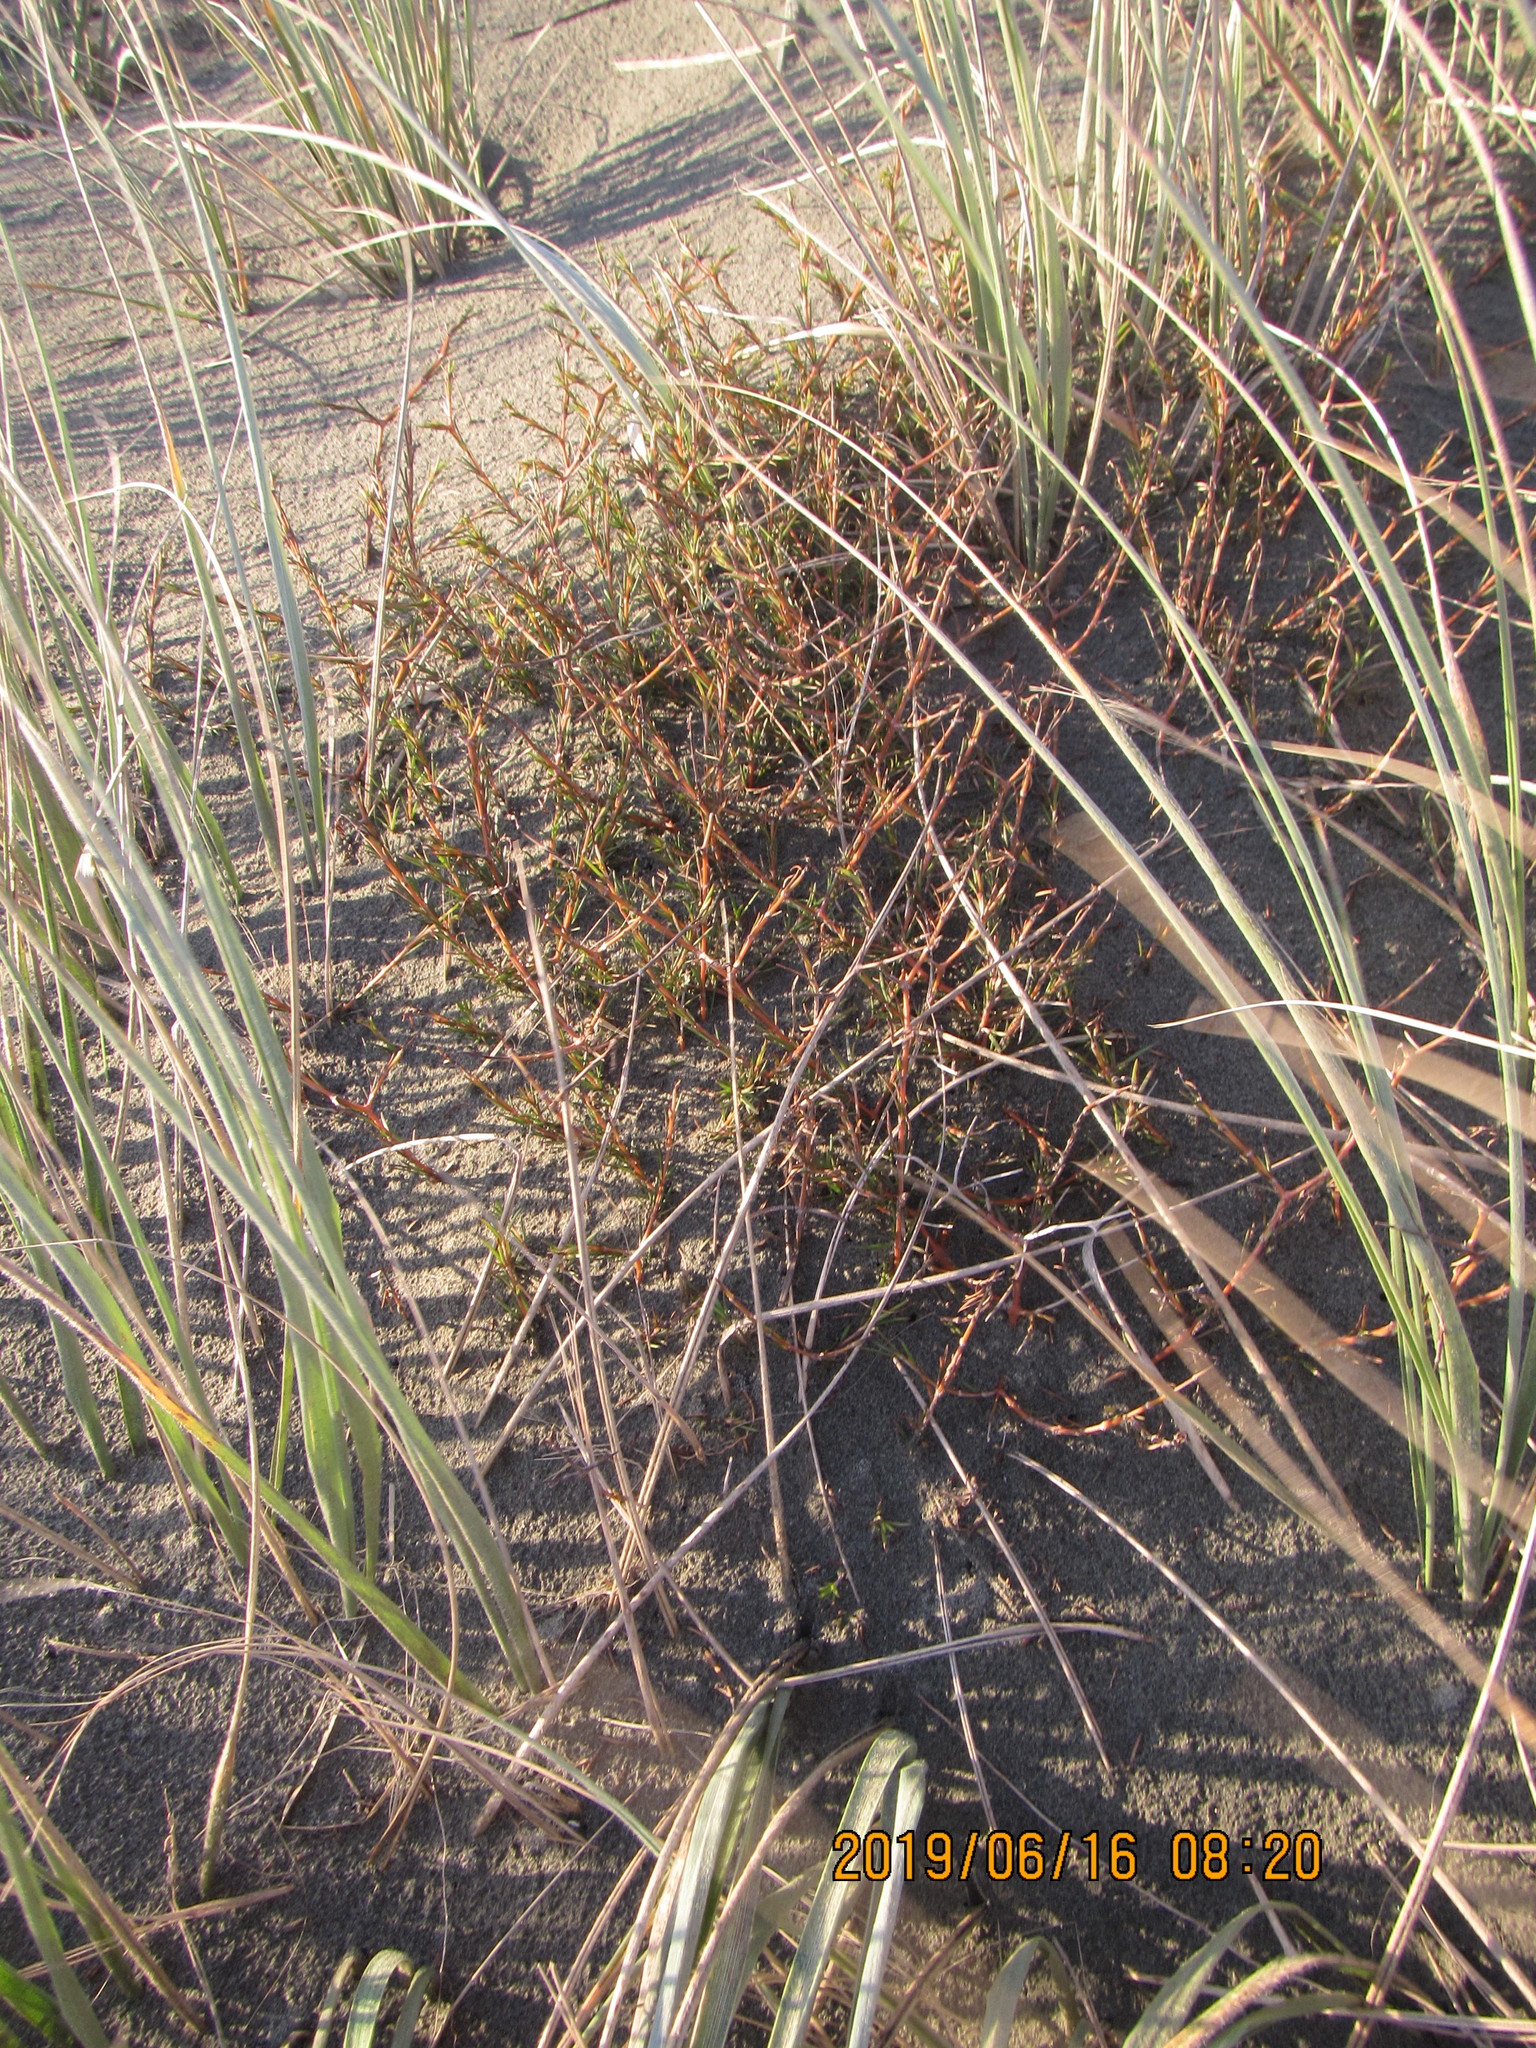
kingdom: Plantae
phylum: Tracheophyta
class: Magnoliopsida
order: Gentianales
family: Rubiaceae
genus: Coprosma
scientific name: Coprosma acerosa
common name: Sand coprosma
